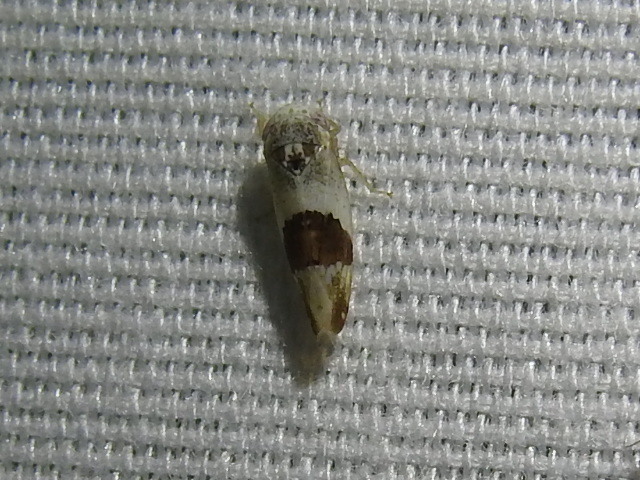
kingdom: Animalia
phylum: Arthropoda
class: Insecta
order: Hemiptera
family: Cicadellidae
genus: Norvellina
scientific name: Norvellina seminuda
